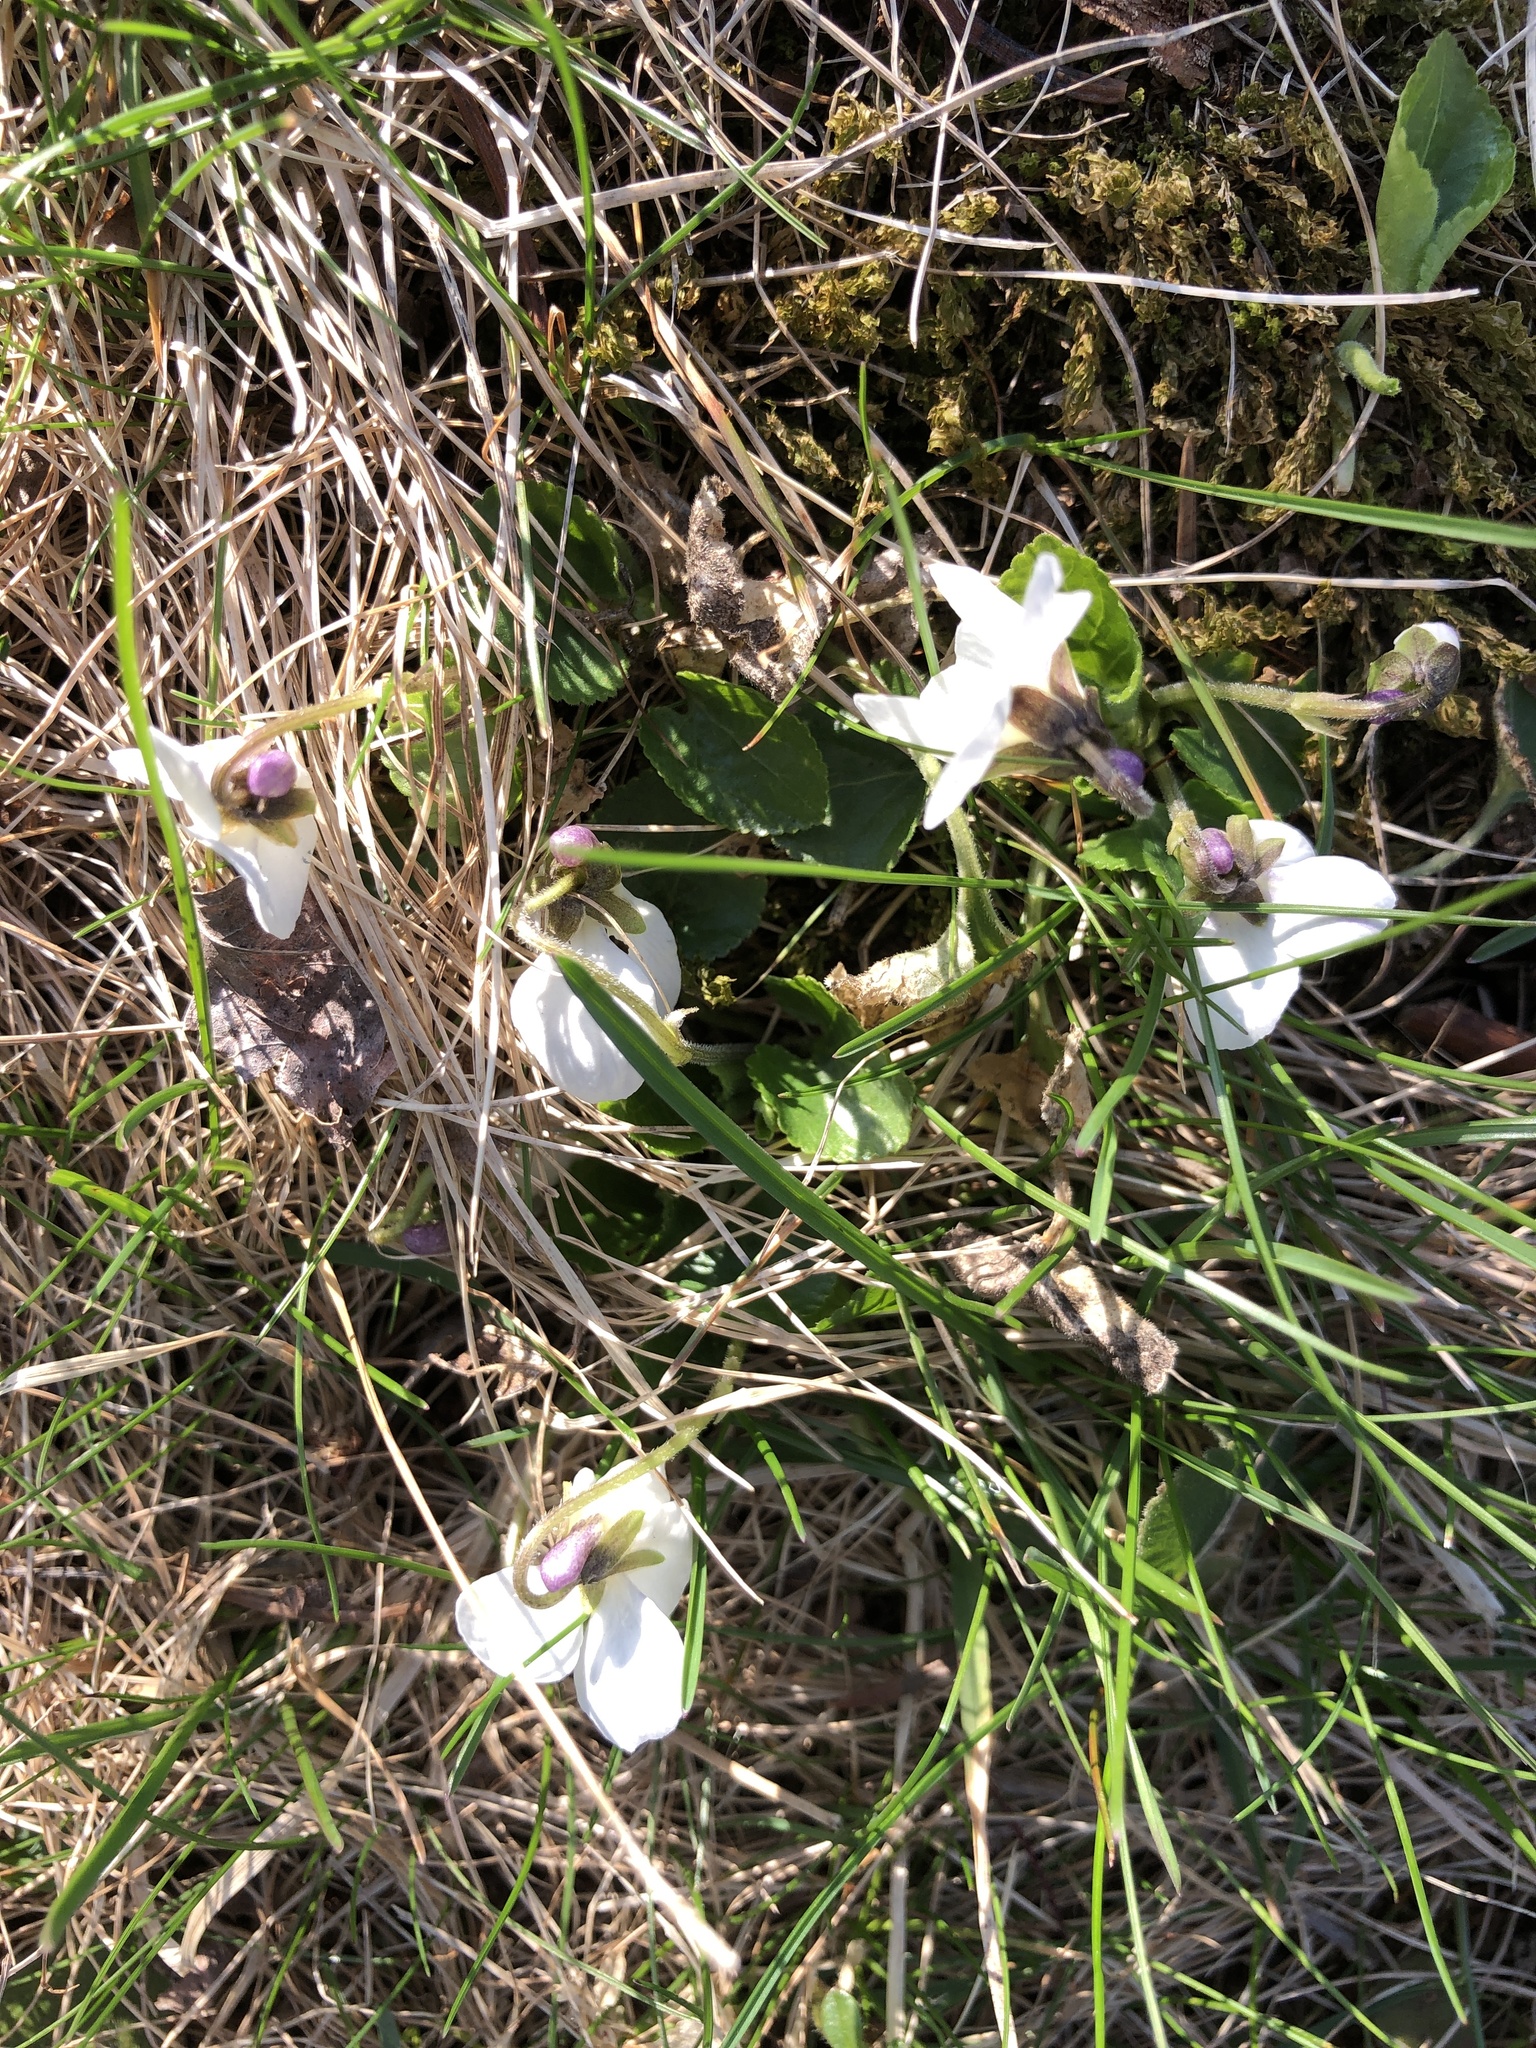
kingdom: Plantae
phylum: Tracheophyta
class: Magnoliopsida
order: Malpighiales
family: Violaceae
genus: Viola
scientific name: Viola odorata
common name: Sweet violet
